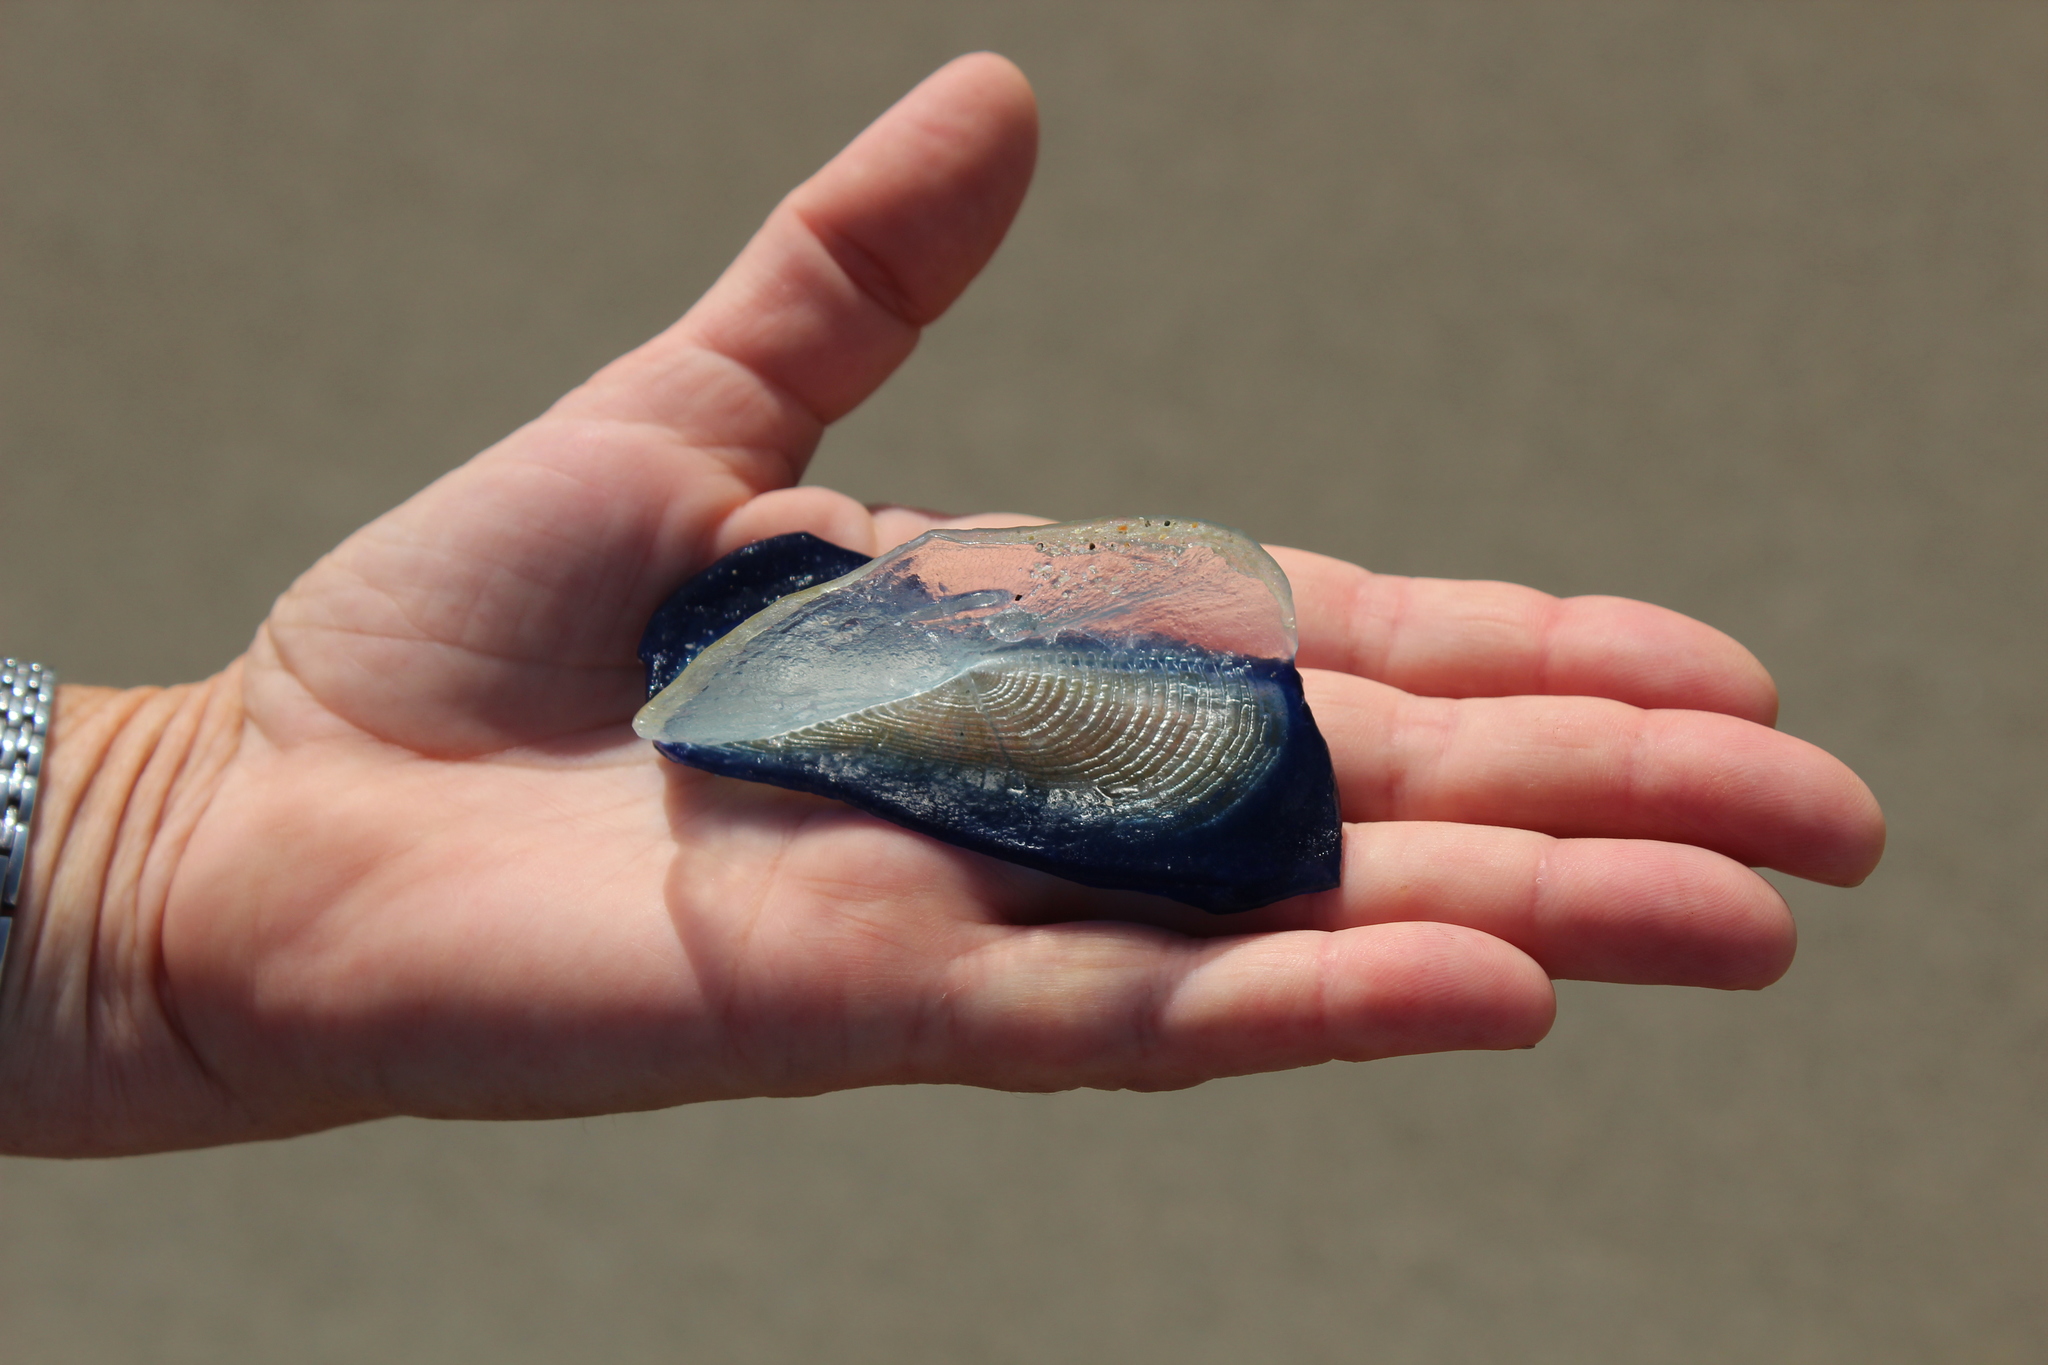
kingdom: Animalia
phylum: Cnidaria
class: Hydrozoa
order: Anthoathecata
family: Porpitidae
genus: Velella
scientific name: Velella velella
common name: By-the-wind-sailor
